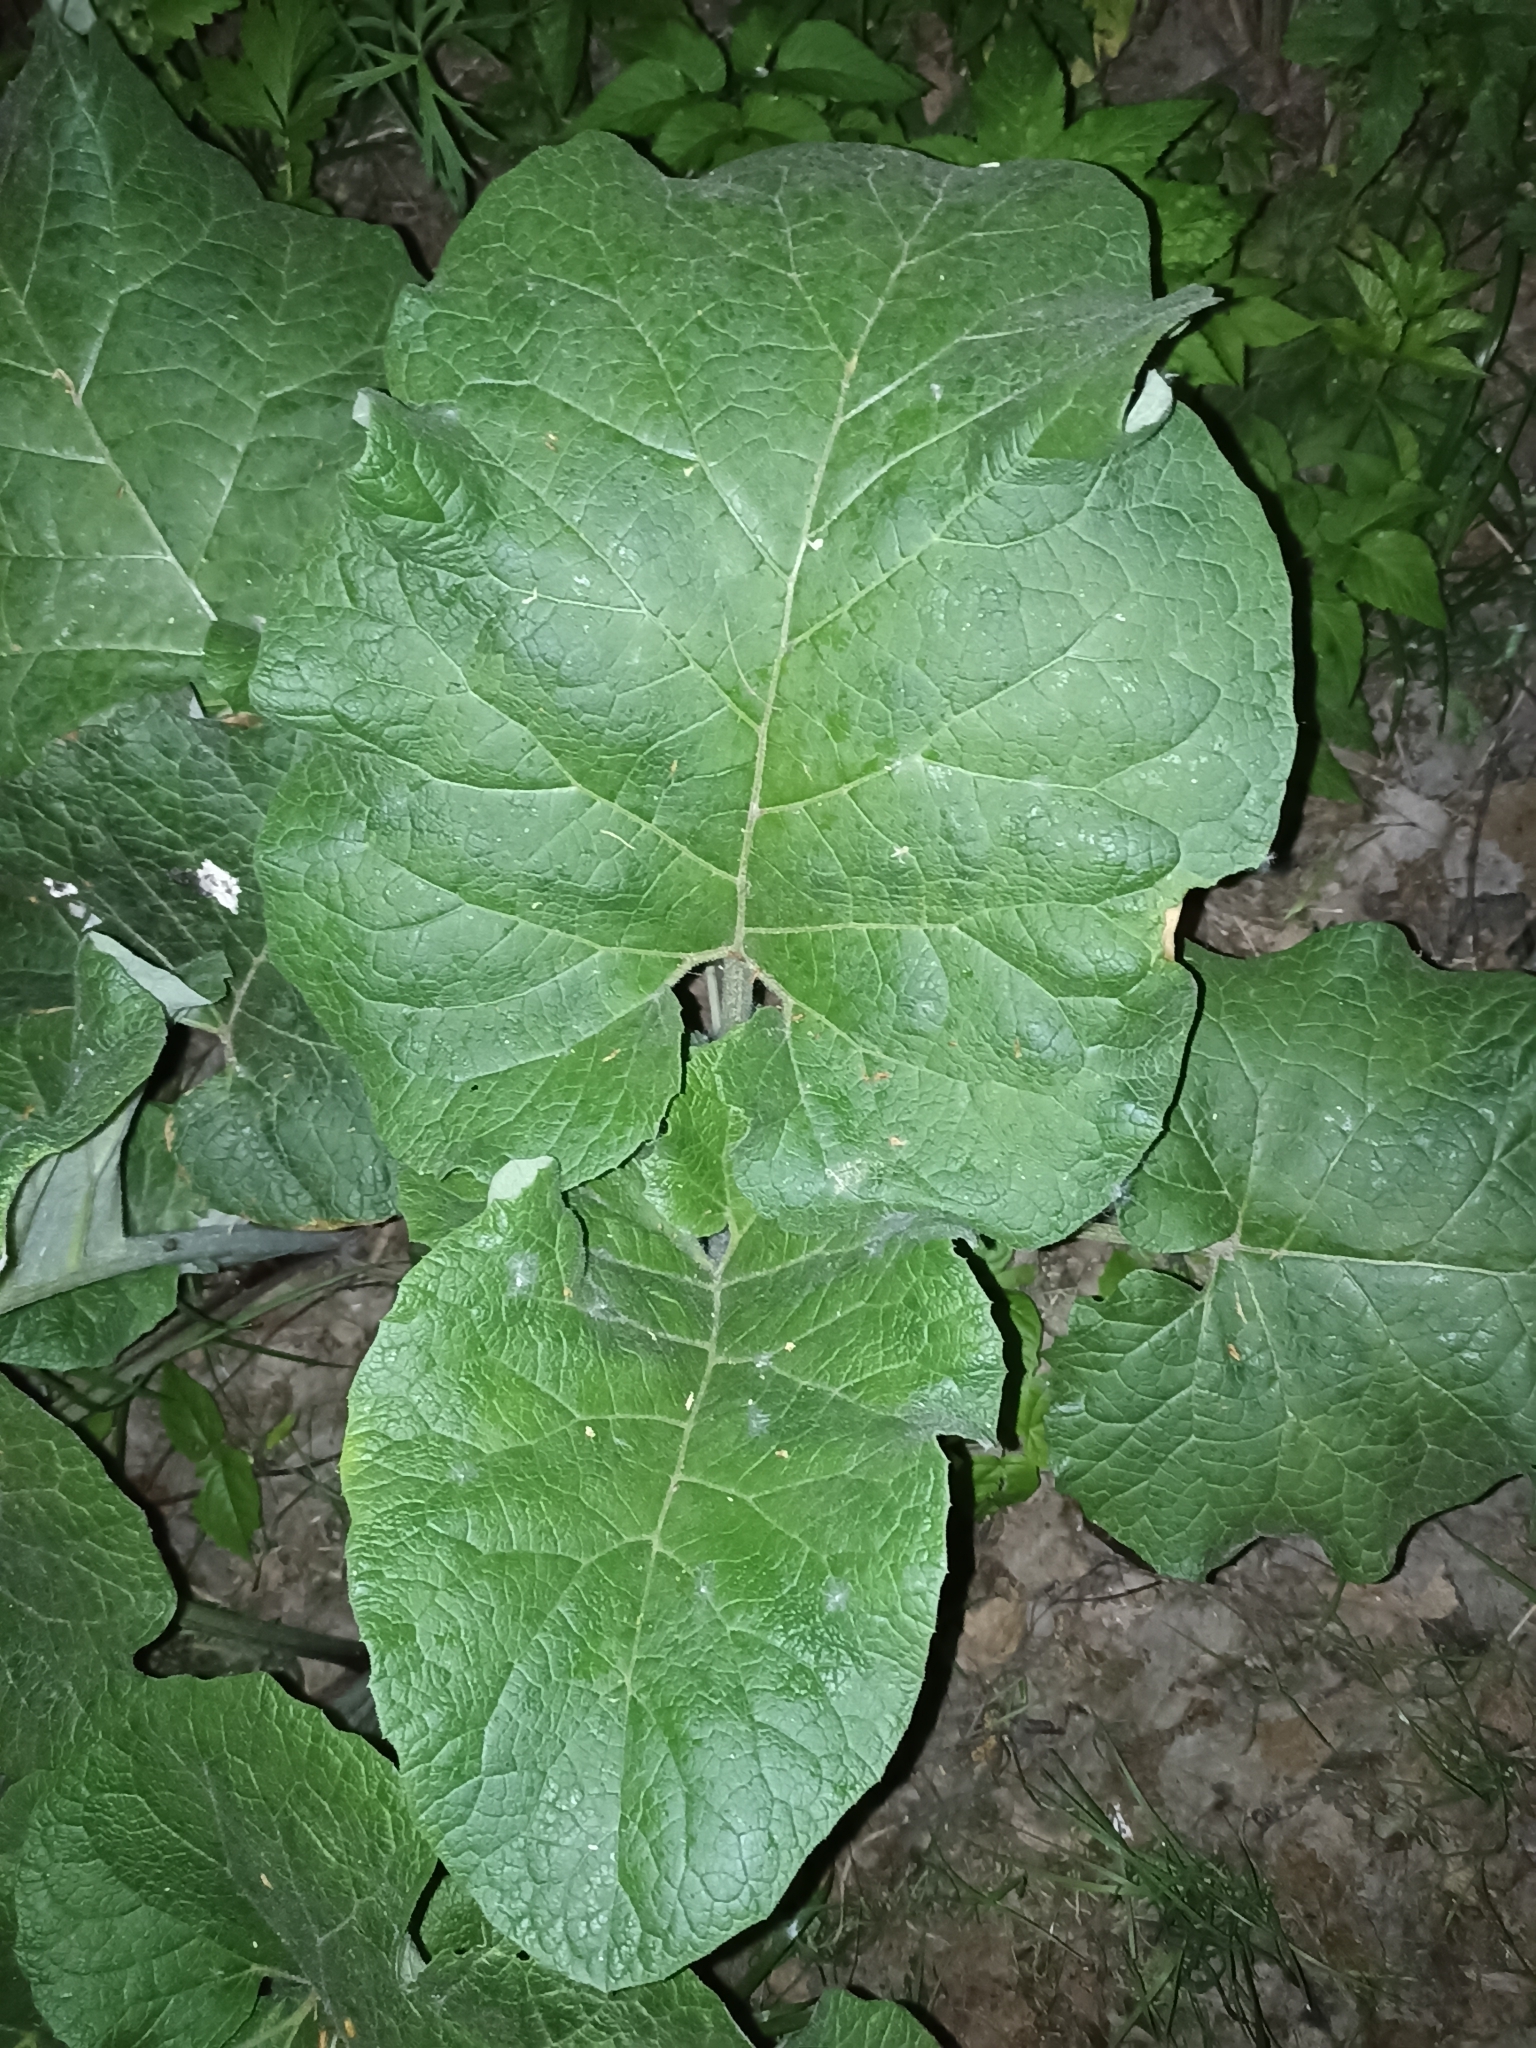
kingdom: Plantae
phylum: Tracheophyta
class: Magnoliopsida
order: Asterales
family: Asteraceae
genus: Arctium
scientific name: Arctium
